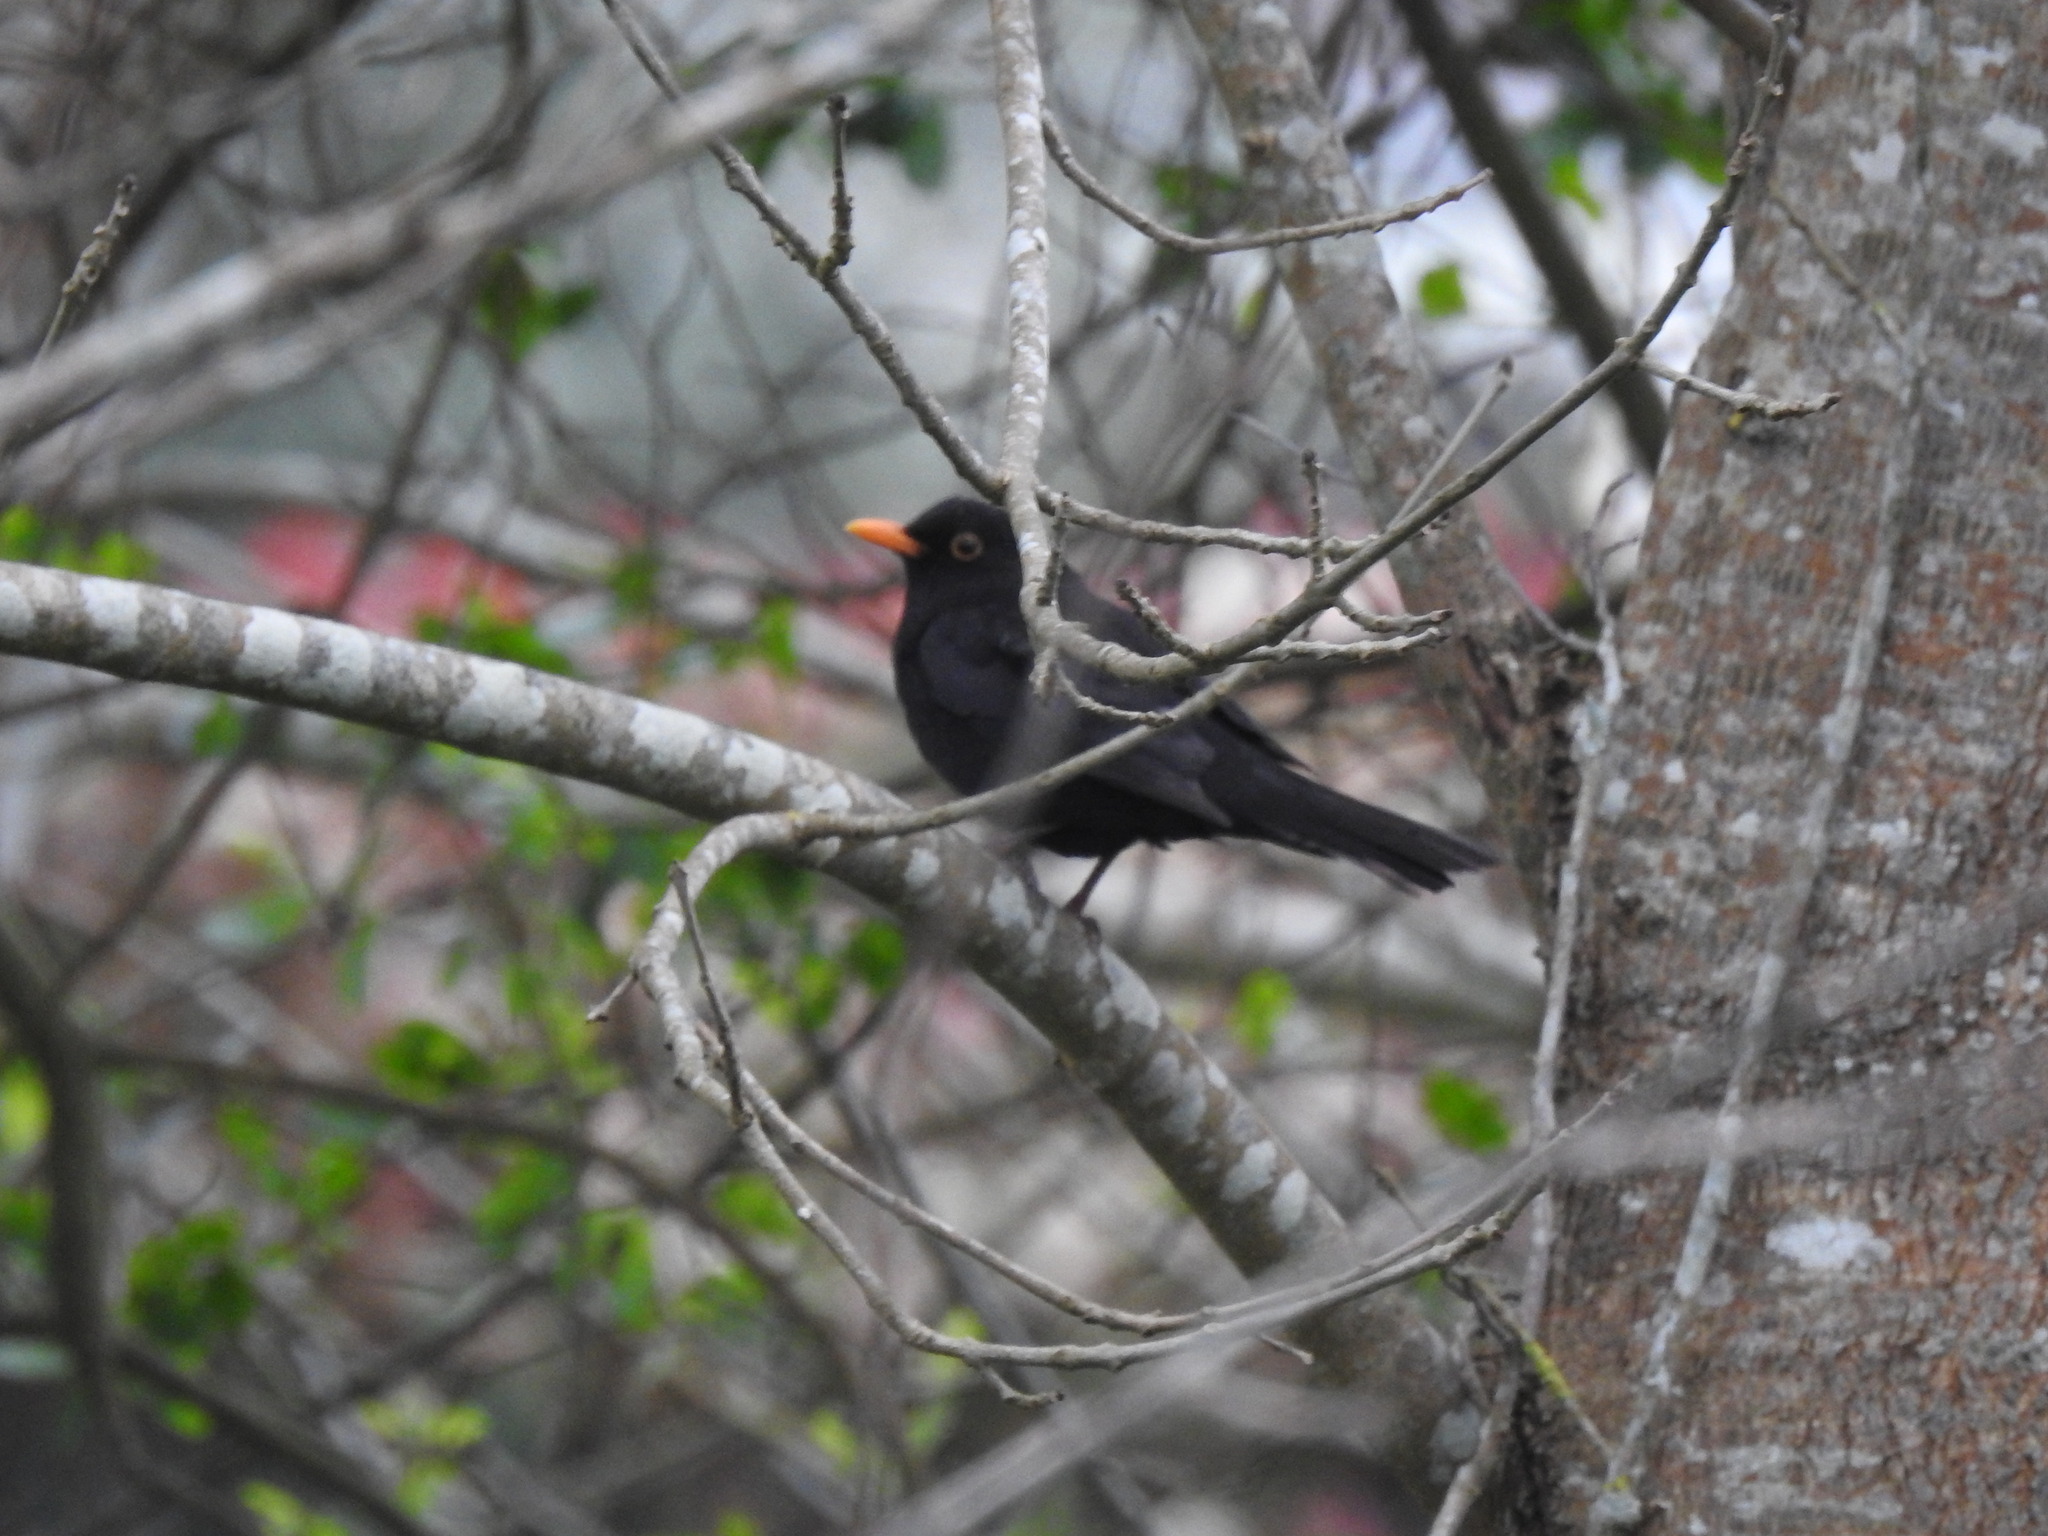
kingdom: Animalia
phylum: Chordata
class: Aves
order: Passeriformes
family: Turdidae
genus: Turdus
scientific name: Turdus merula
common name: Common blackbird
